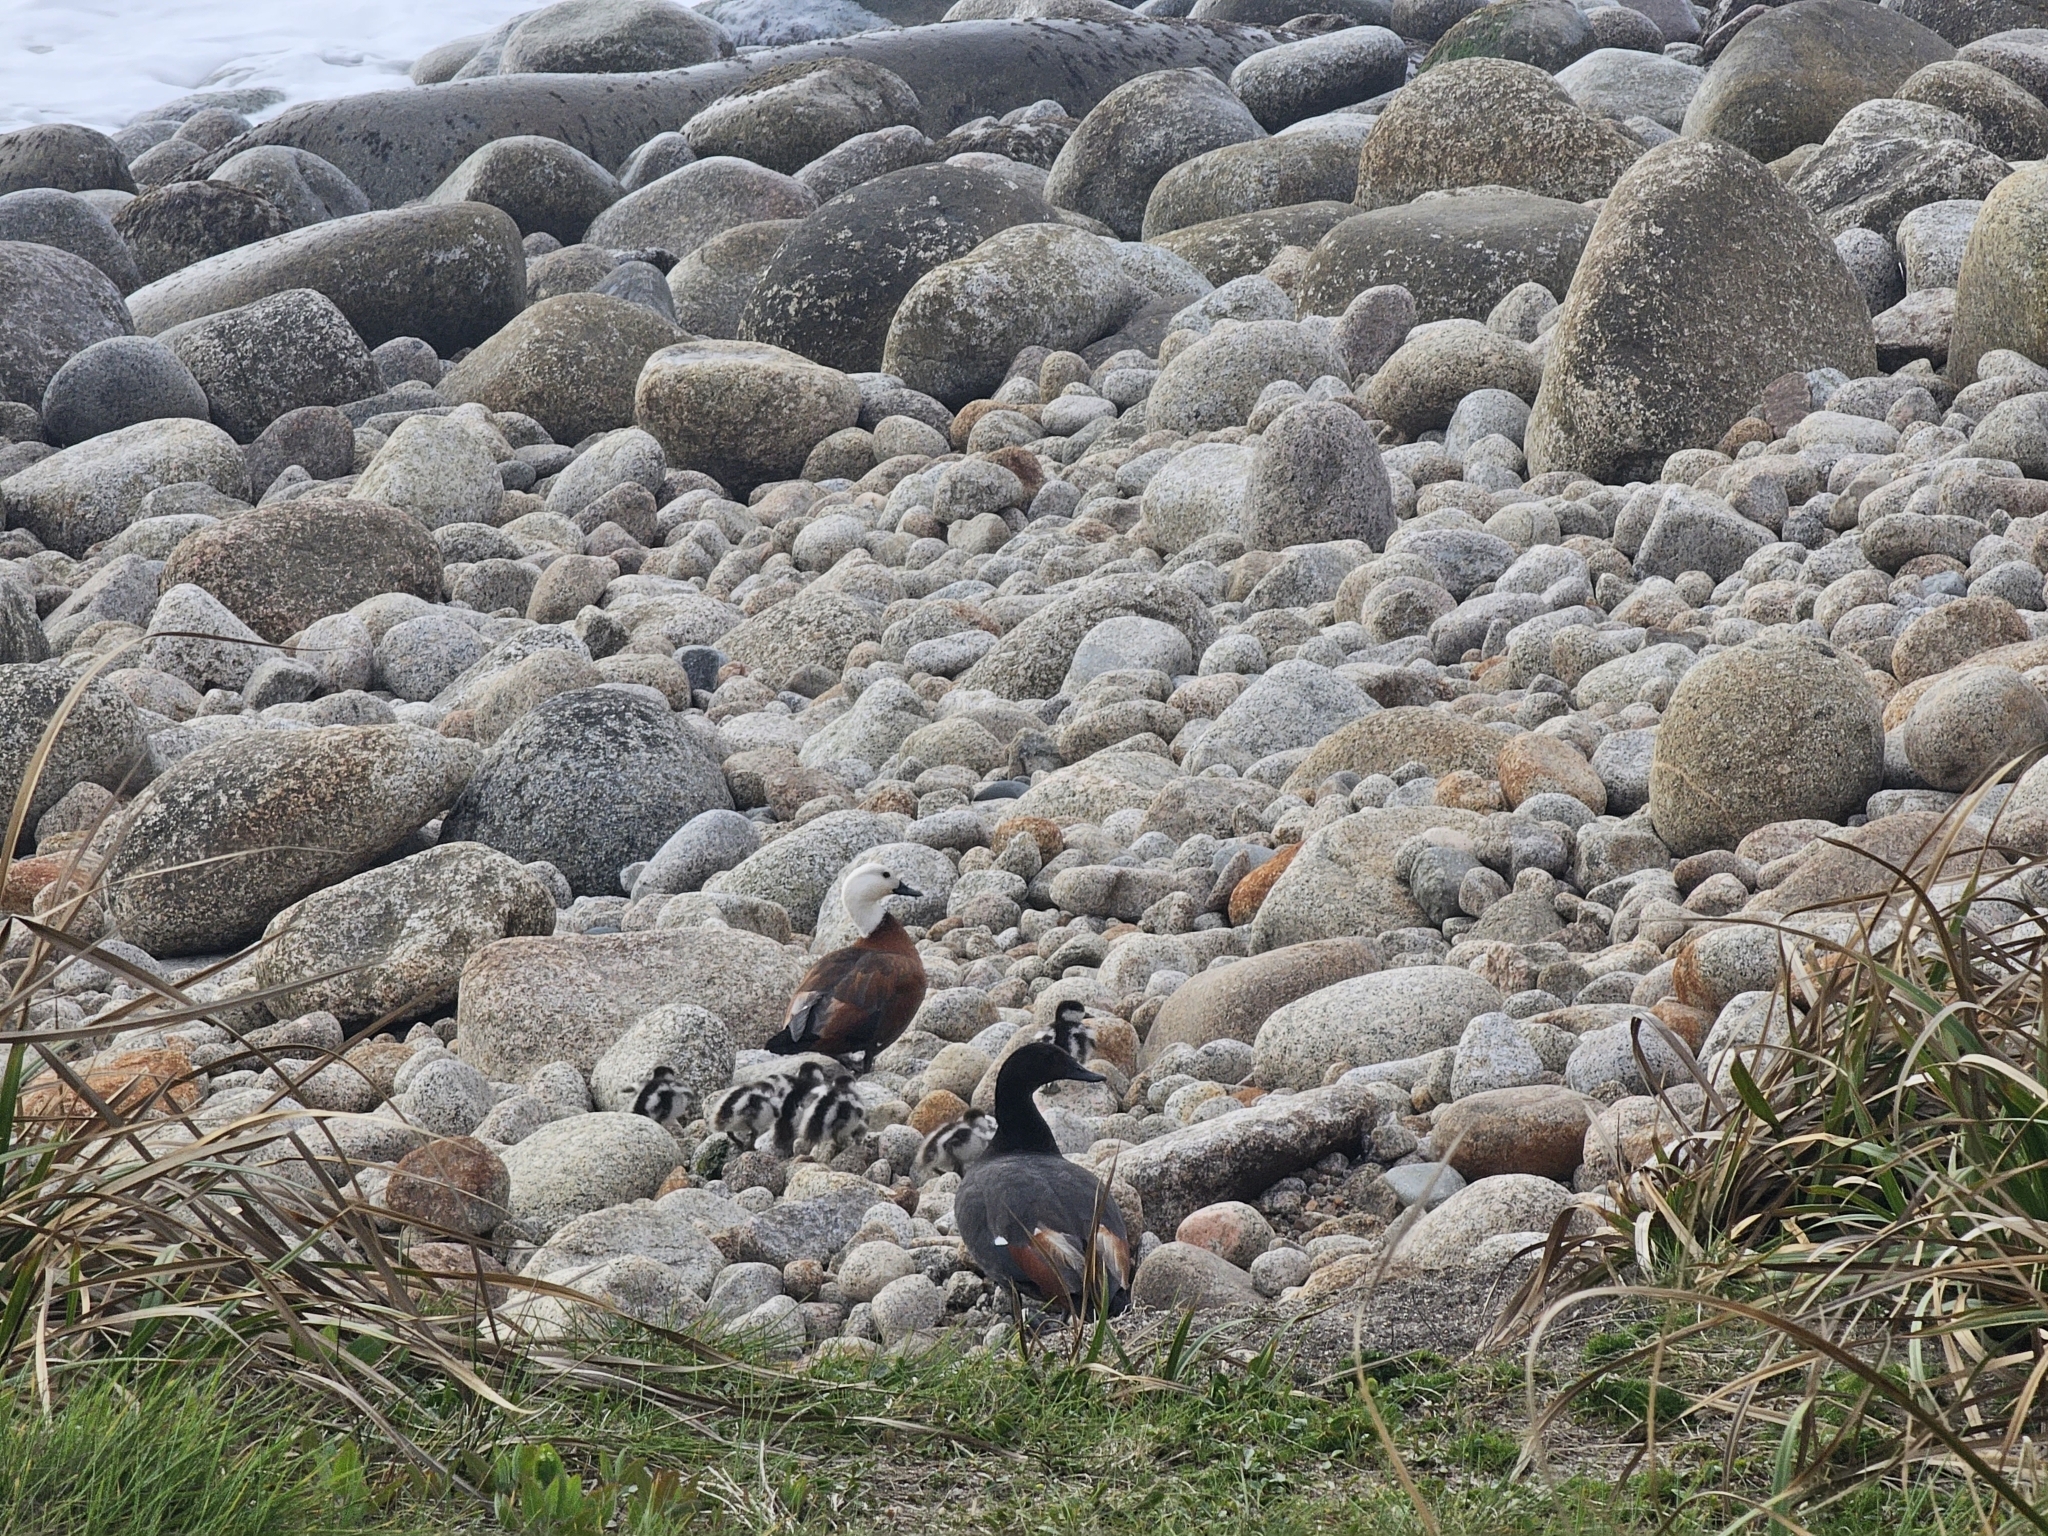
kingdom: Animalia
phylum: Chordata
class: Aves
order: Anseriformes
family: Anatidae
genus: Tadorna
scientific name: Tadorna variegata
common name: Paradise shelduck
